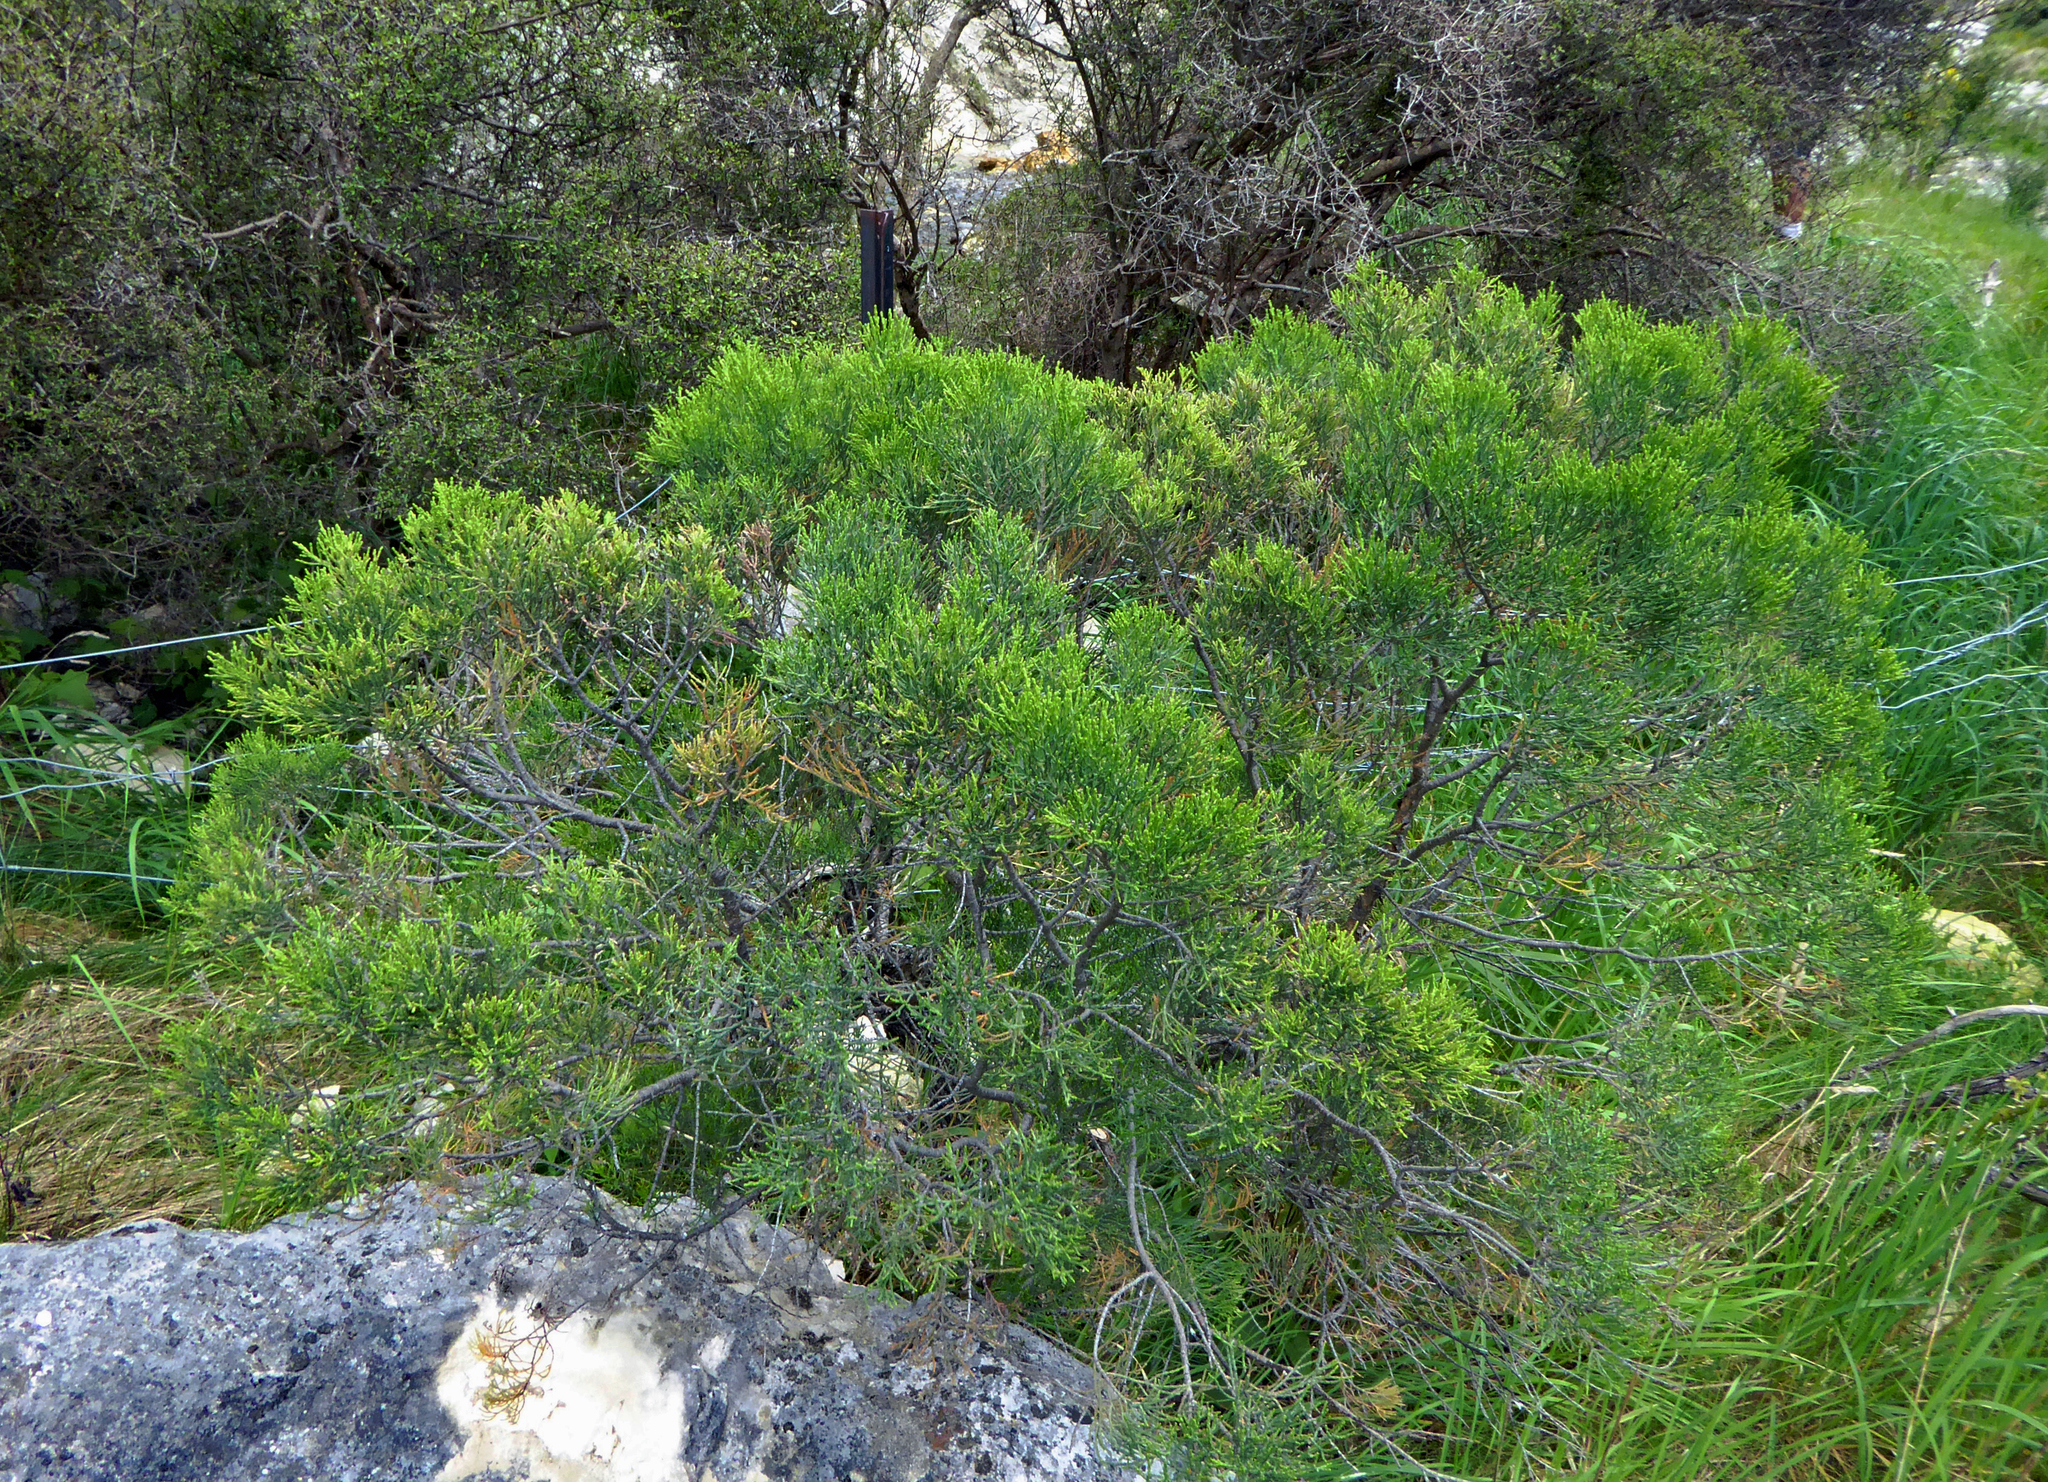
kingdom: Plantae
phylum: Tracheophyta
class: Magnoliopsida
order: Lamiales
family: Plantaginaceae
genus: Veronica
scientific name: Veronica cupressoides
